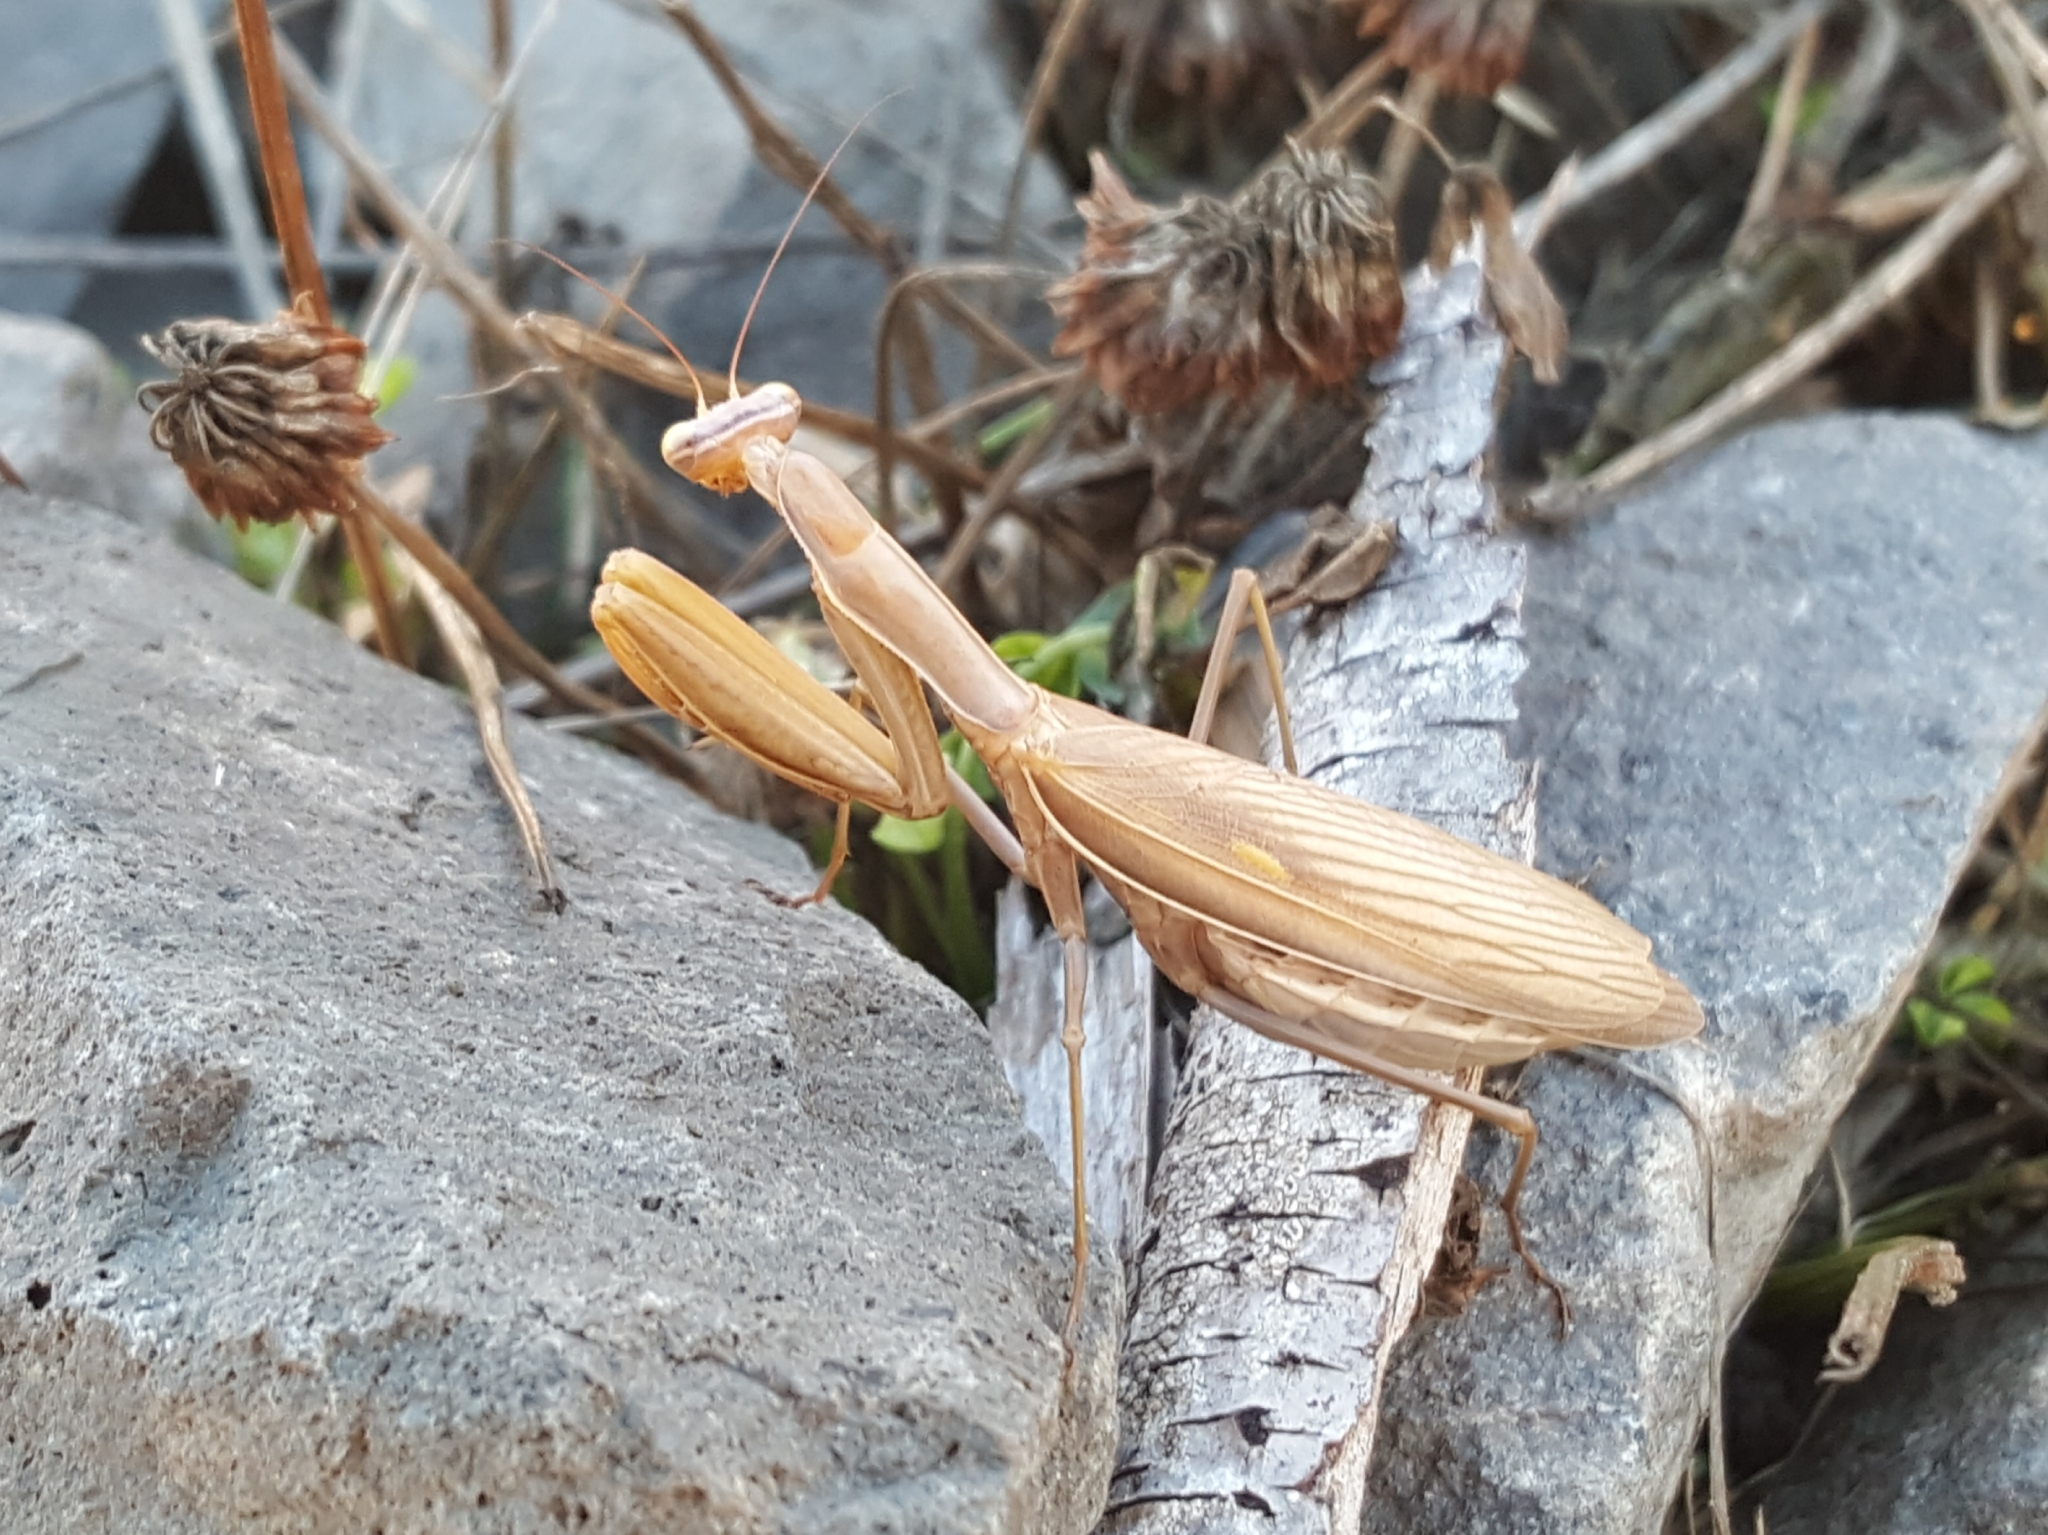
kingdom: Animalia
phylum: Arthropoda
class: Insecta
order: Mantodea
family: Mantidae
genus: Mantis
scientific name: Mantis religiosa
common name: Praying mantis
